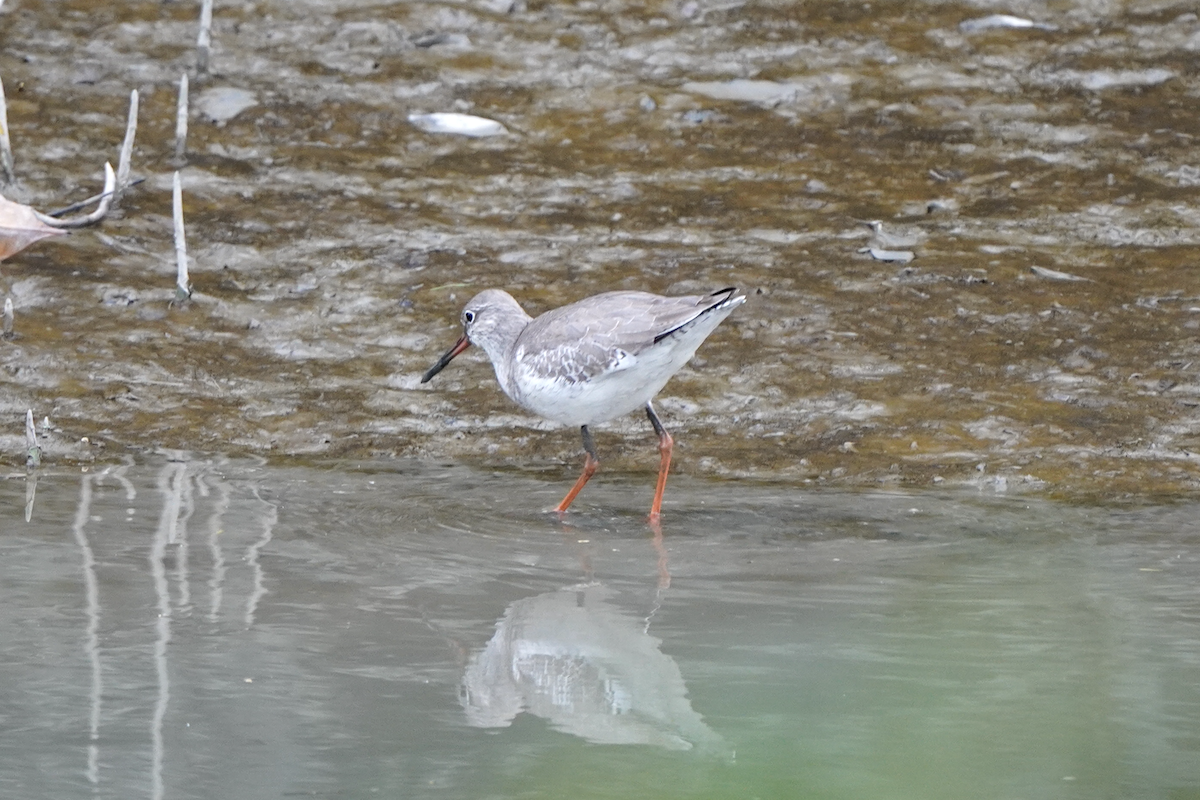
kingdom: Animalia
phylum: Chordata
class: Aves
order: Charadriiformes
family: Scolopacidae
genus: Tringa
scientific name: Tringa totanus
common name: Common redshank
